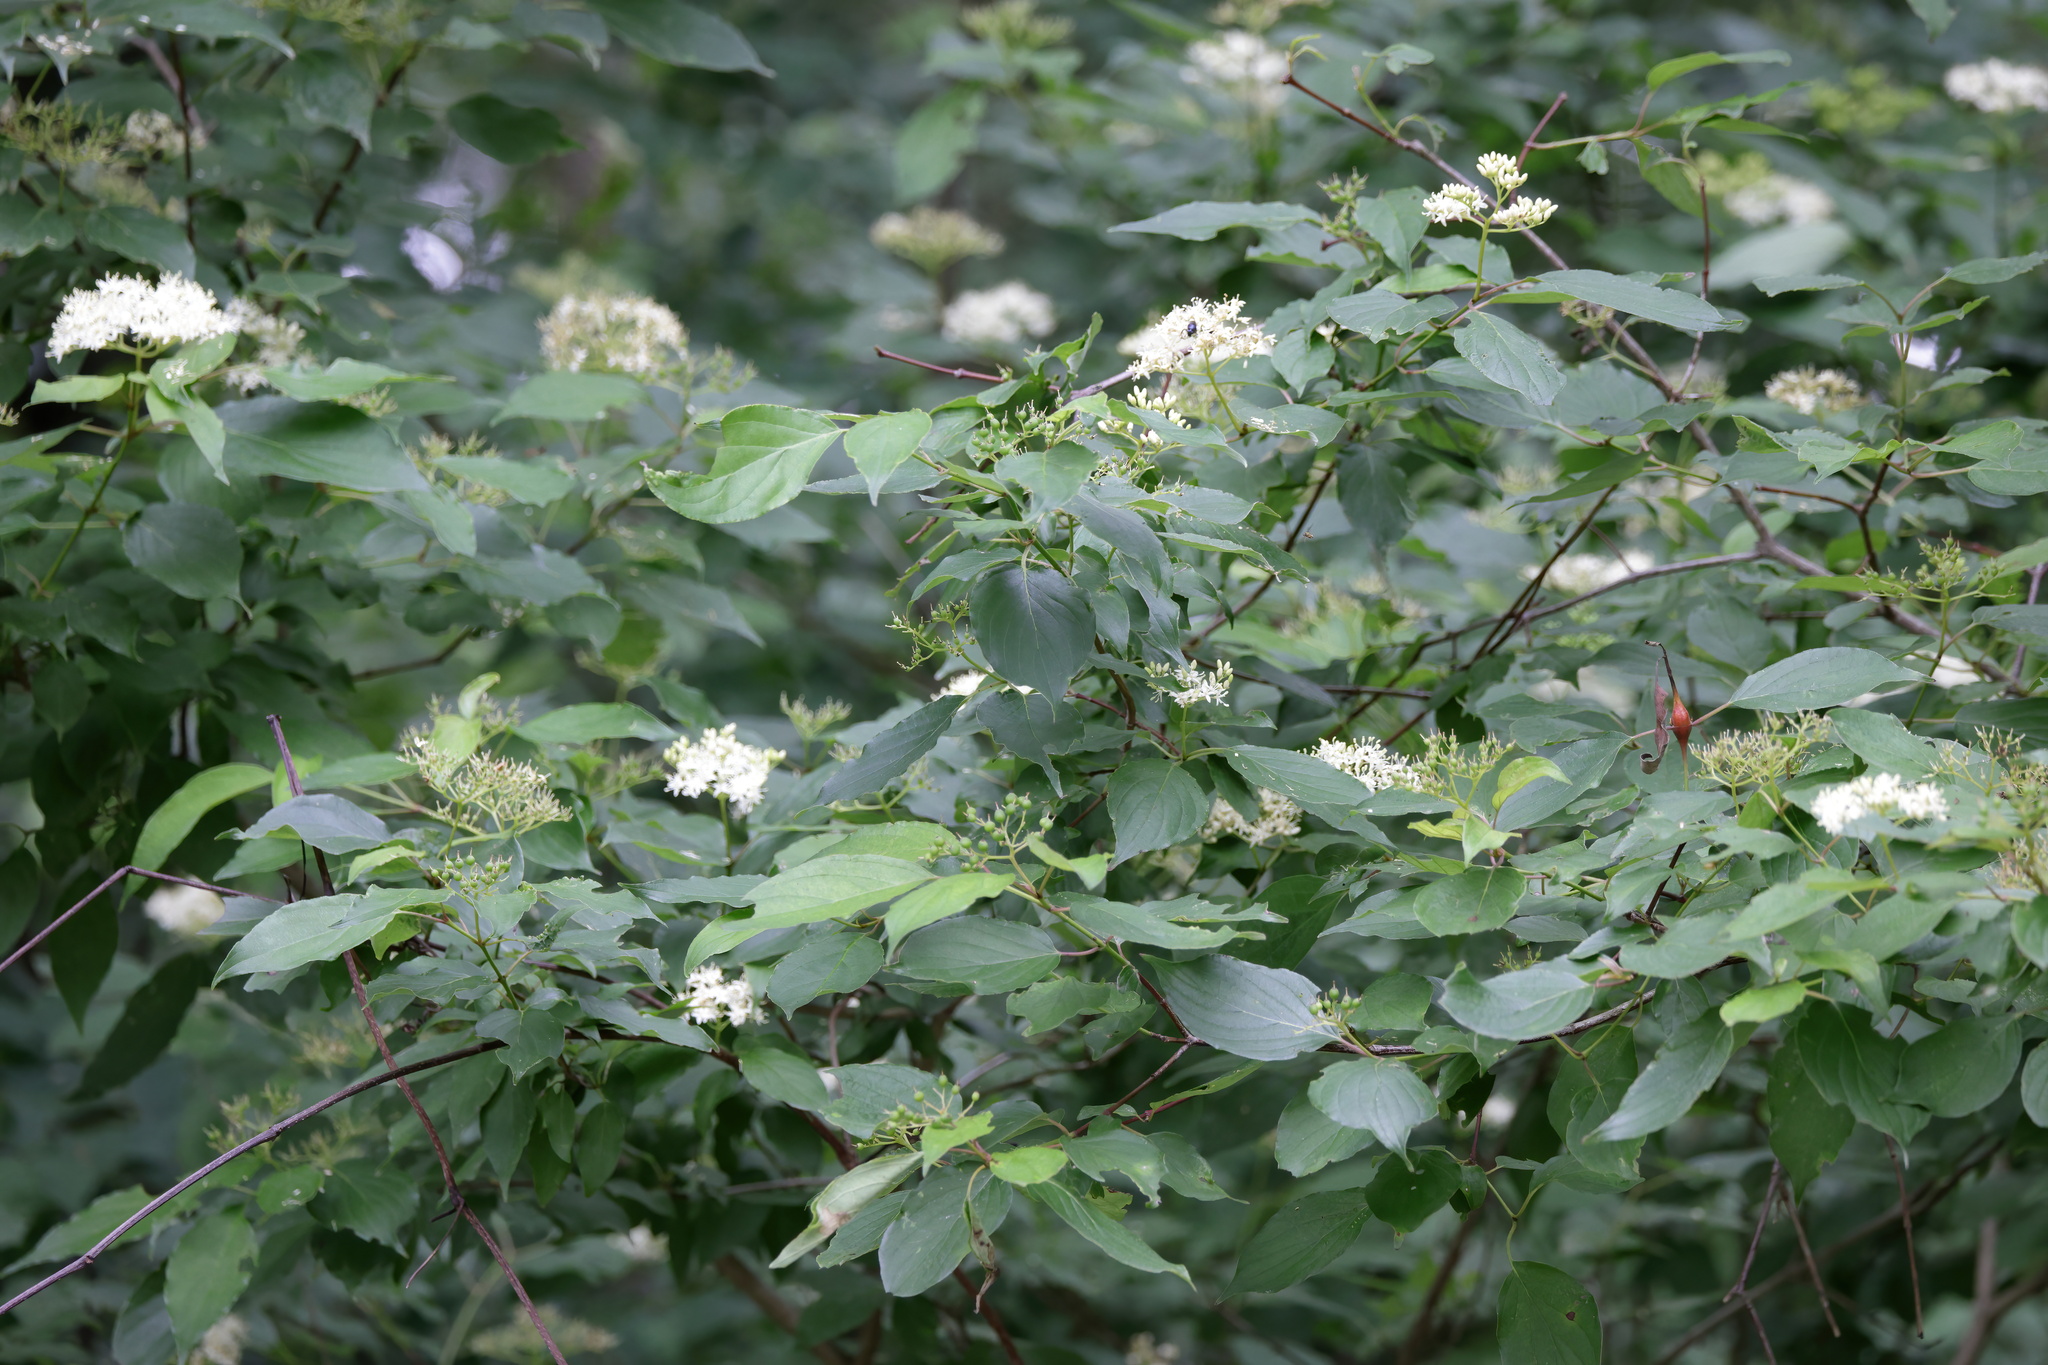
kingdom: Plantae
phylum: Tracheophyta
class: Magnoliopsida
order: Cornales
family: Cornaceae
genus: Cornus
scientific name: Cornus drummondii
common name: Rough-leaf dogwood
